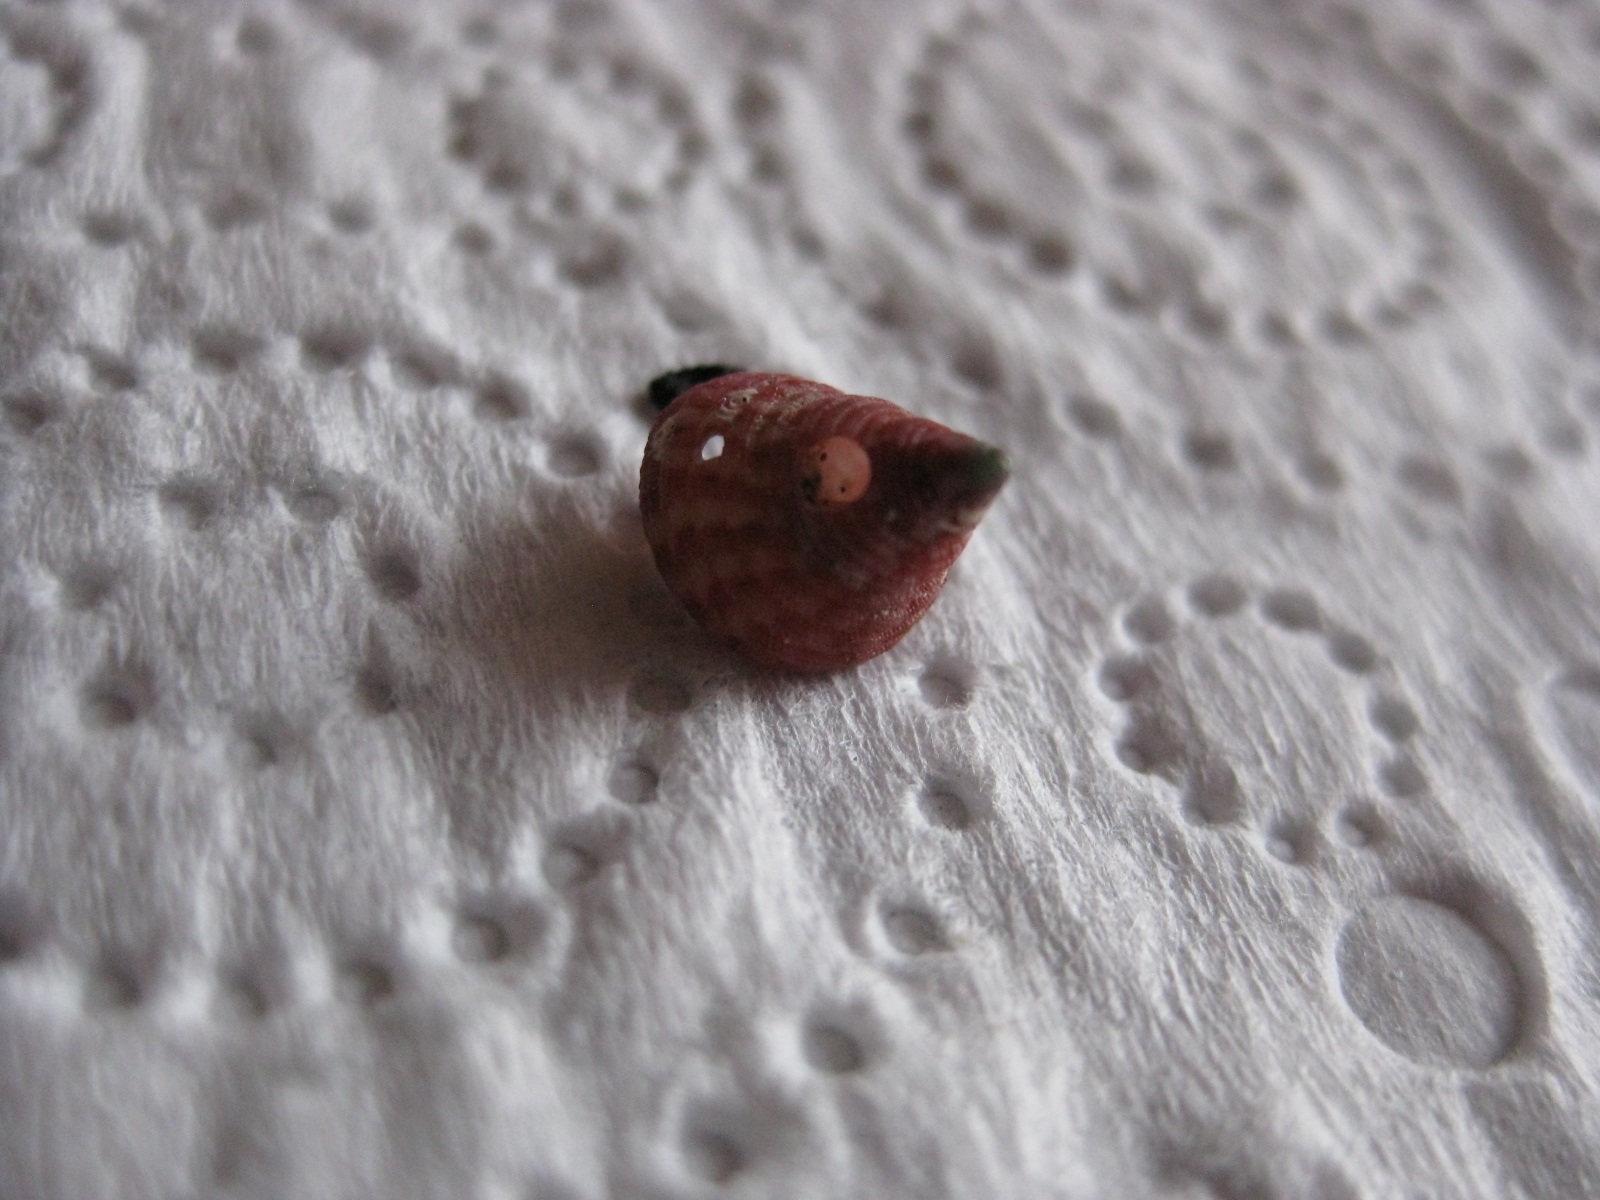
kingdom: Animalia
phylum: Mollusca
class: Gastropoda
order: Trochida
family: Trochidae
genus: Micrelenchus
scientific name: Micrelenchus purpureus
